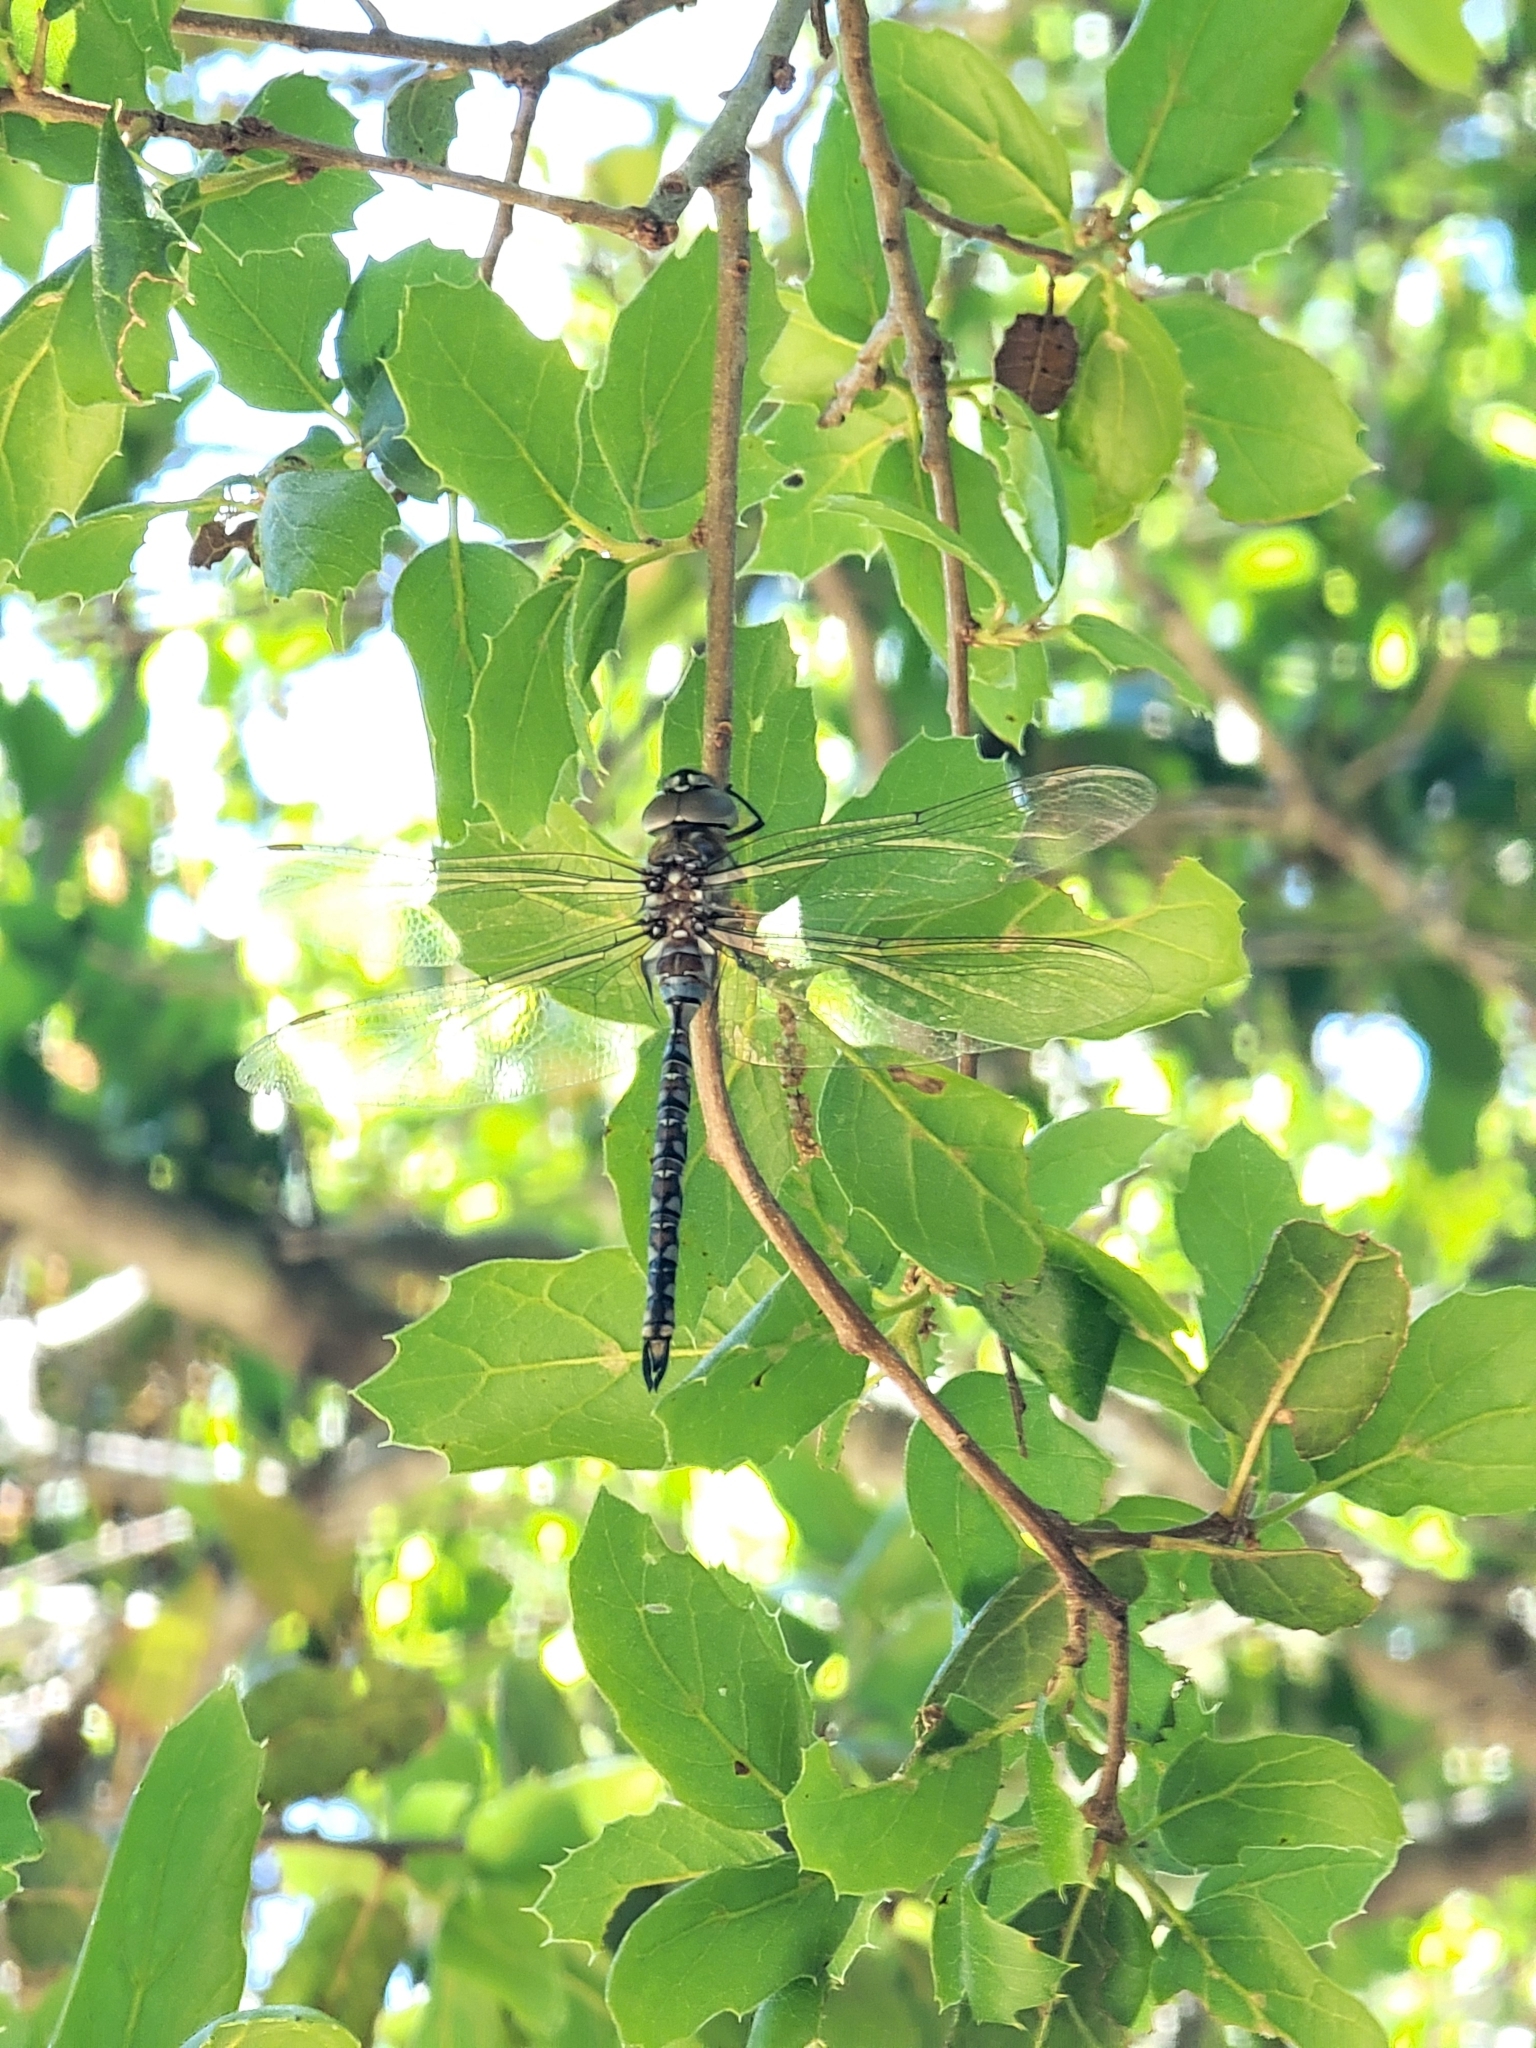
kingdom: Animalia
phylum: Arthropoda
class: Insecta
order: Odonata
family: Aeshnidae
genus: Rhionaeschna
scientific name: Rhionaeschna multicolor
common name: Blue-eyed darner
